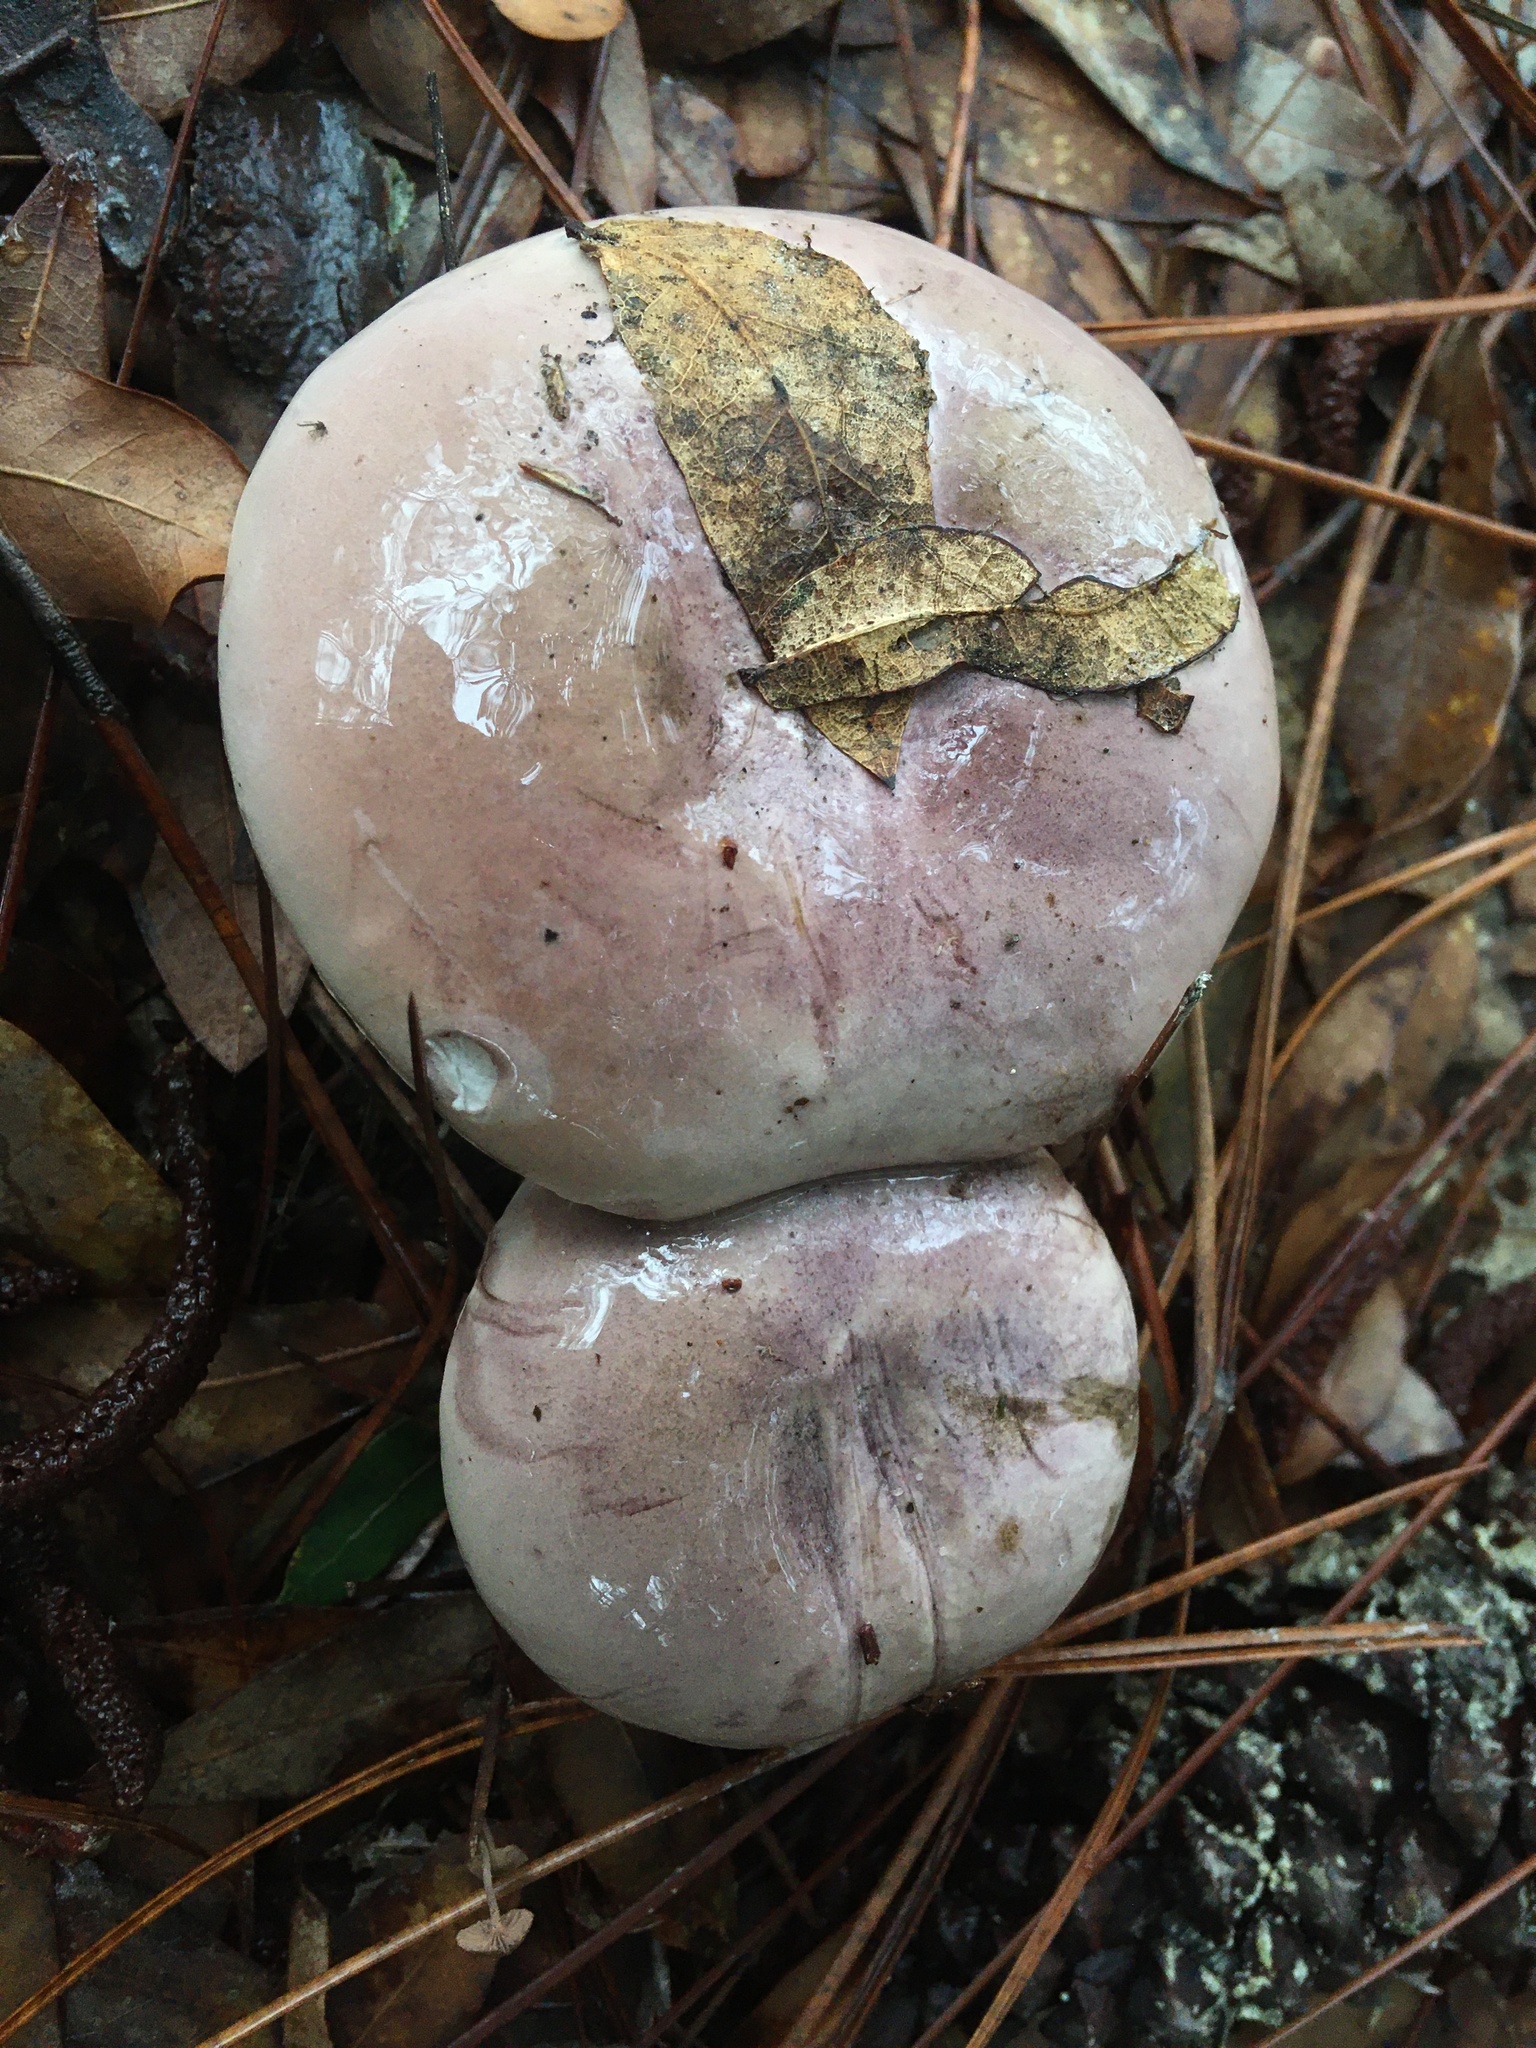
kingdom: Fungi
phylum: Basidiomycota
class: Agaricomycetes
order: Boletales
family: Boletaceae
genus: Tylopilus
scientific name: Tylopilus violatinctus
